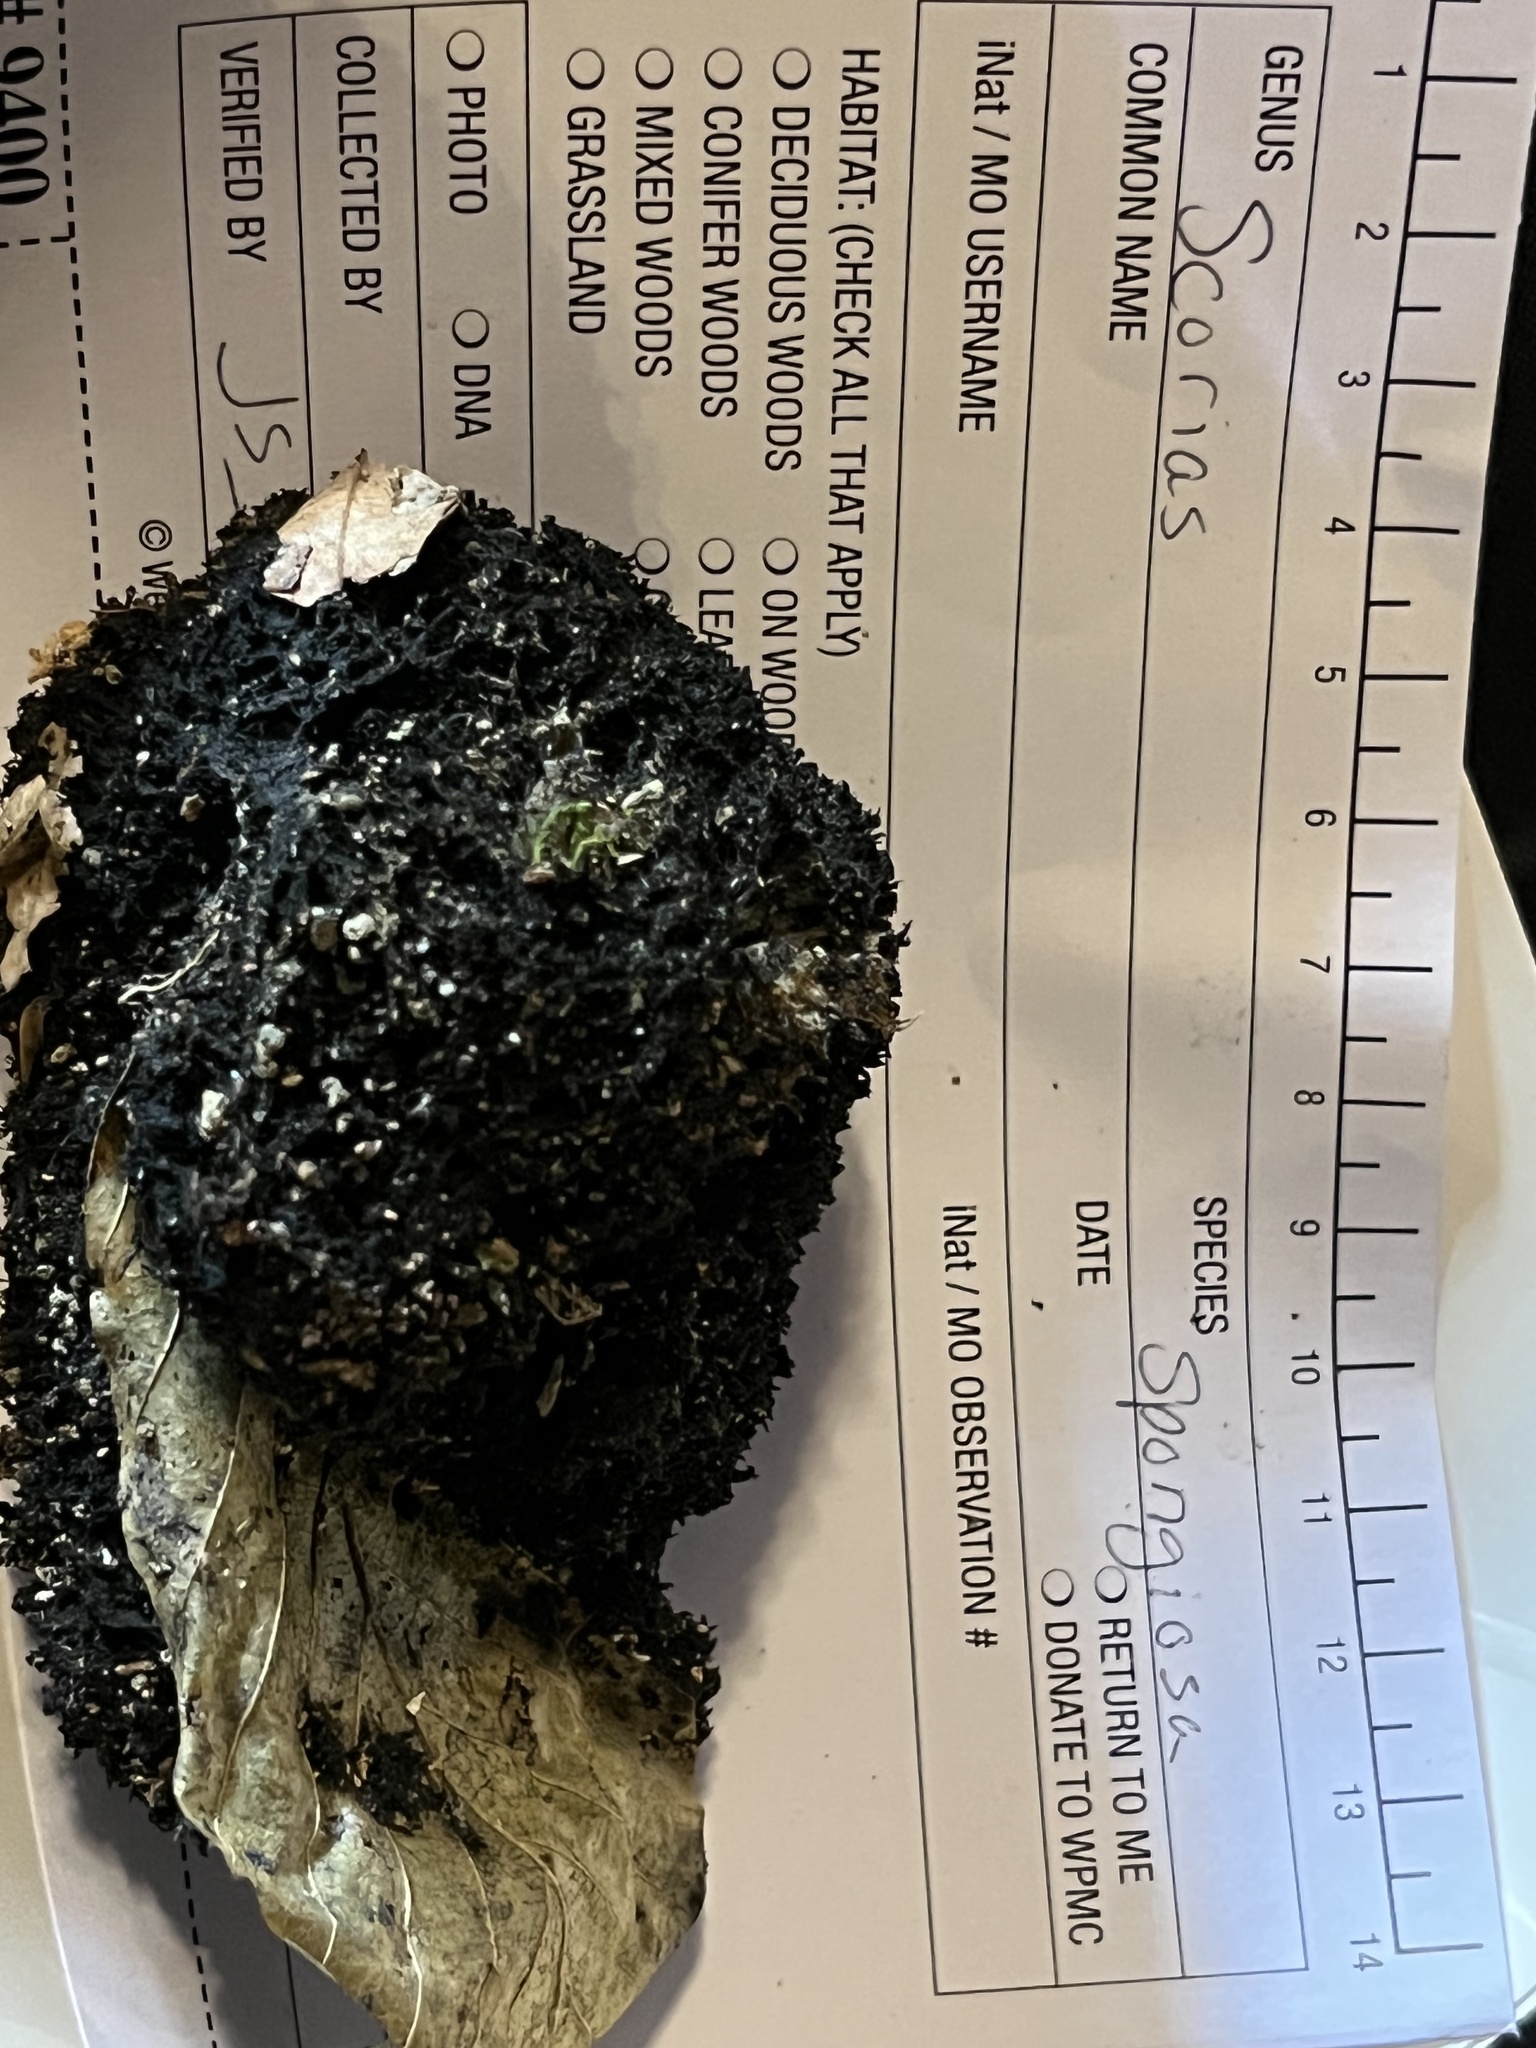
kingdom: Fungi
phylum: Ascomycota
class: Dothideomycetes
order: Capnodiales
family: Capnodiaceae
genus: Scorias
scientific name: Scorias spongiosa
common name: Black sooty mold
